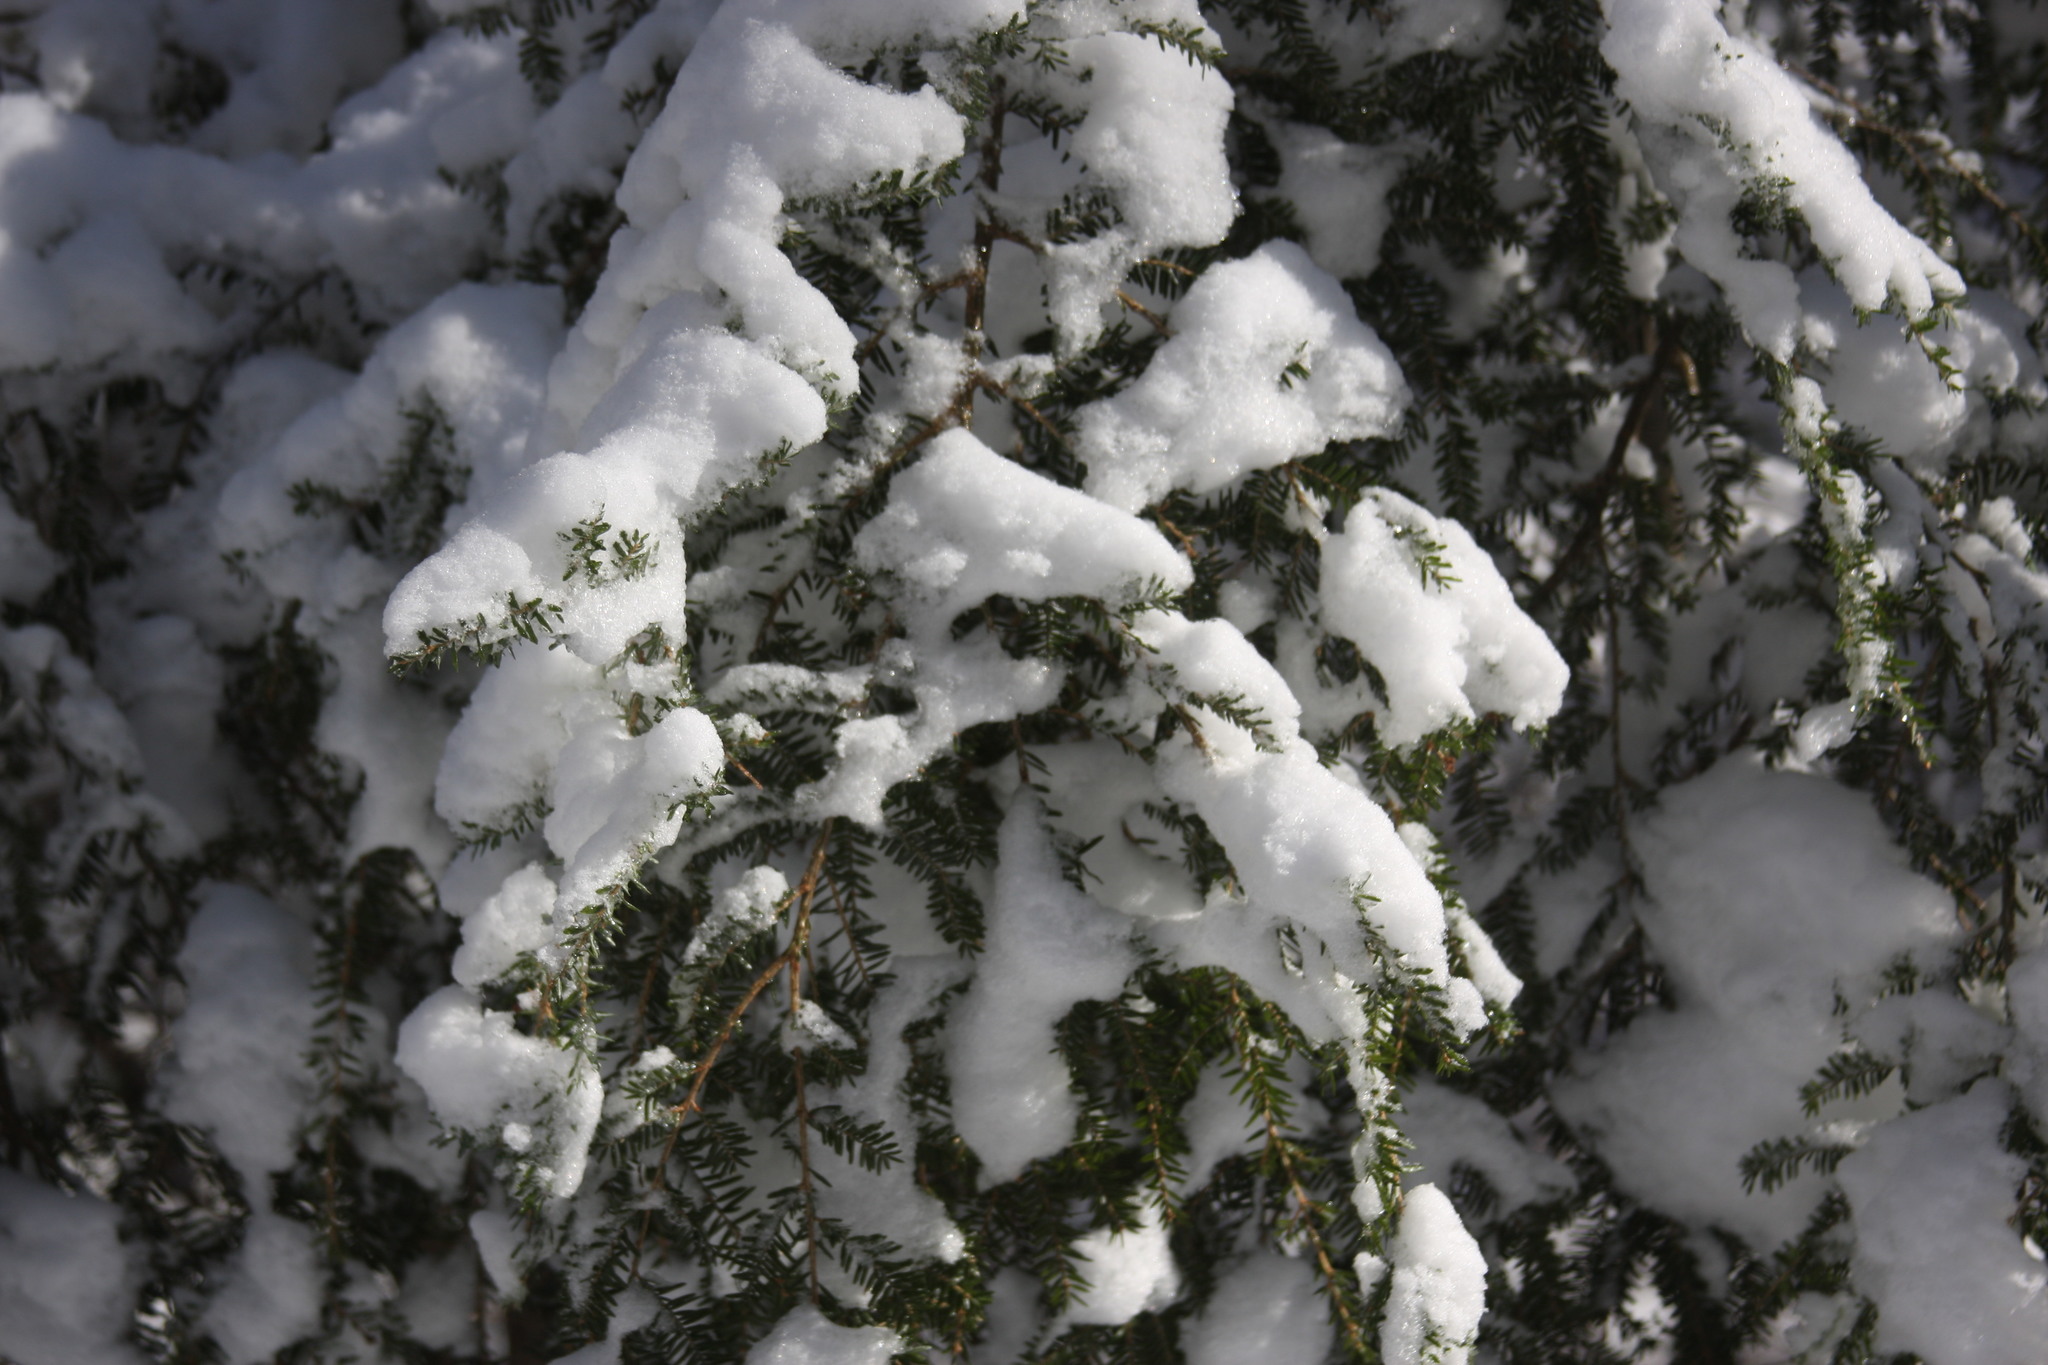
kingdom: Plantae
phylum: Tracheophyta
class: Pinopsida
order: Pinales
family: Pinaceae
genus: Tsuga
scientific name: Tsuga canadensis
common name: Eastern hemlock
